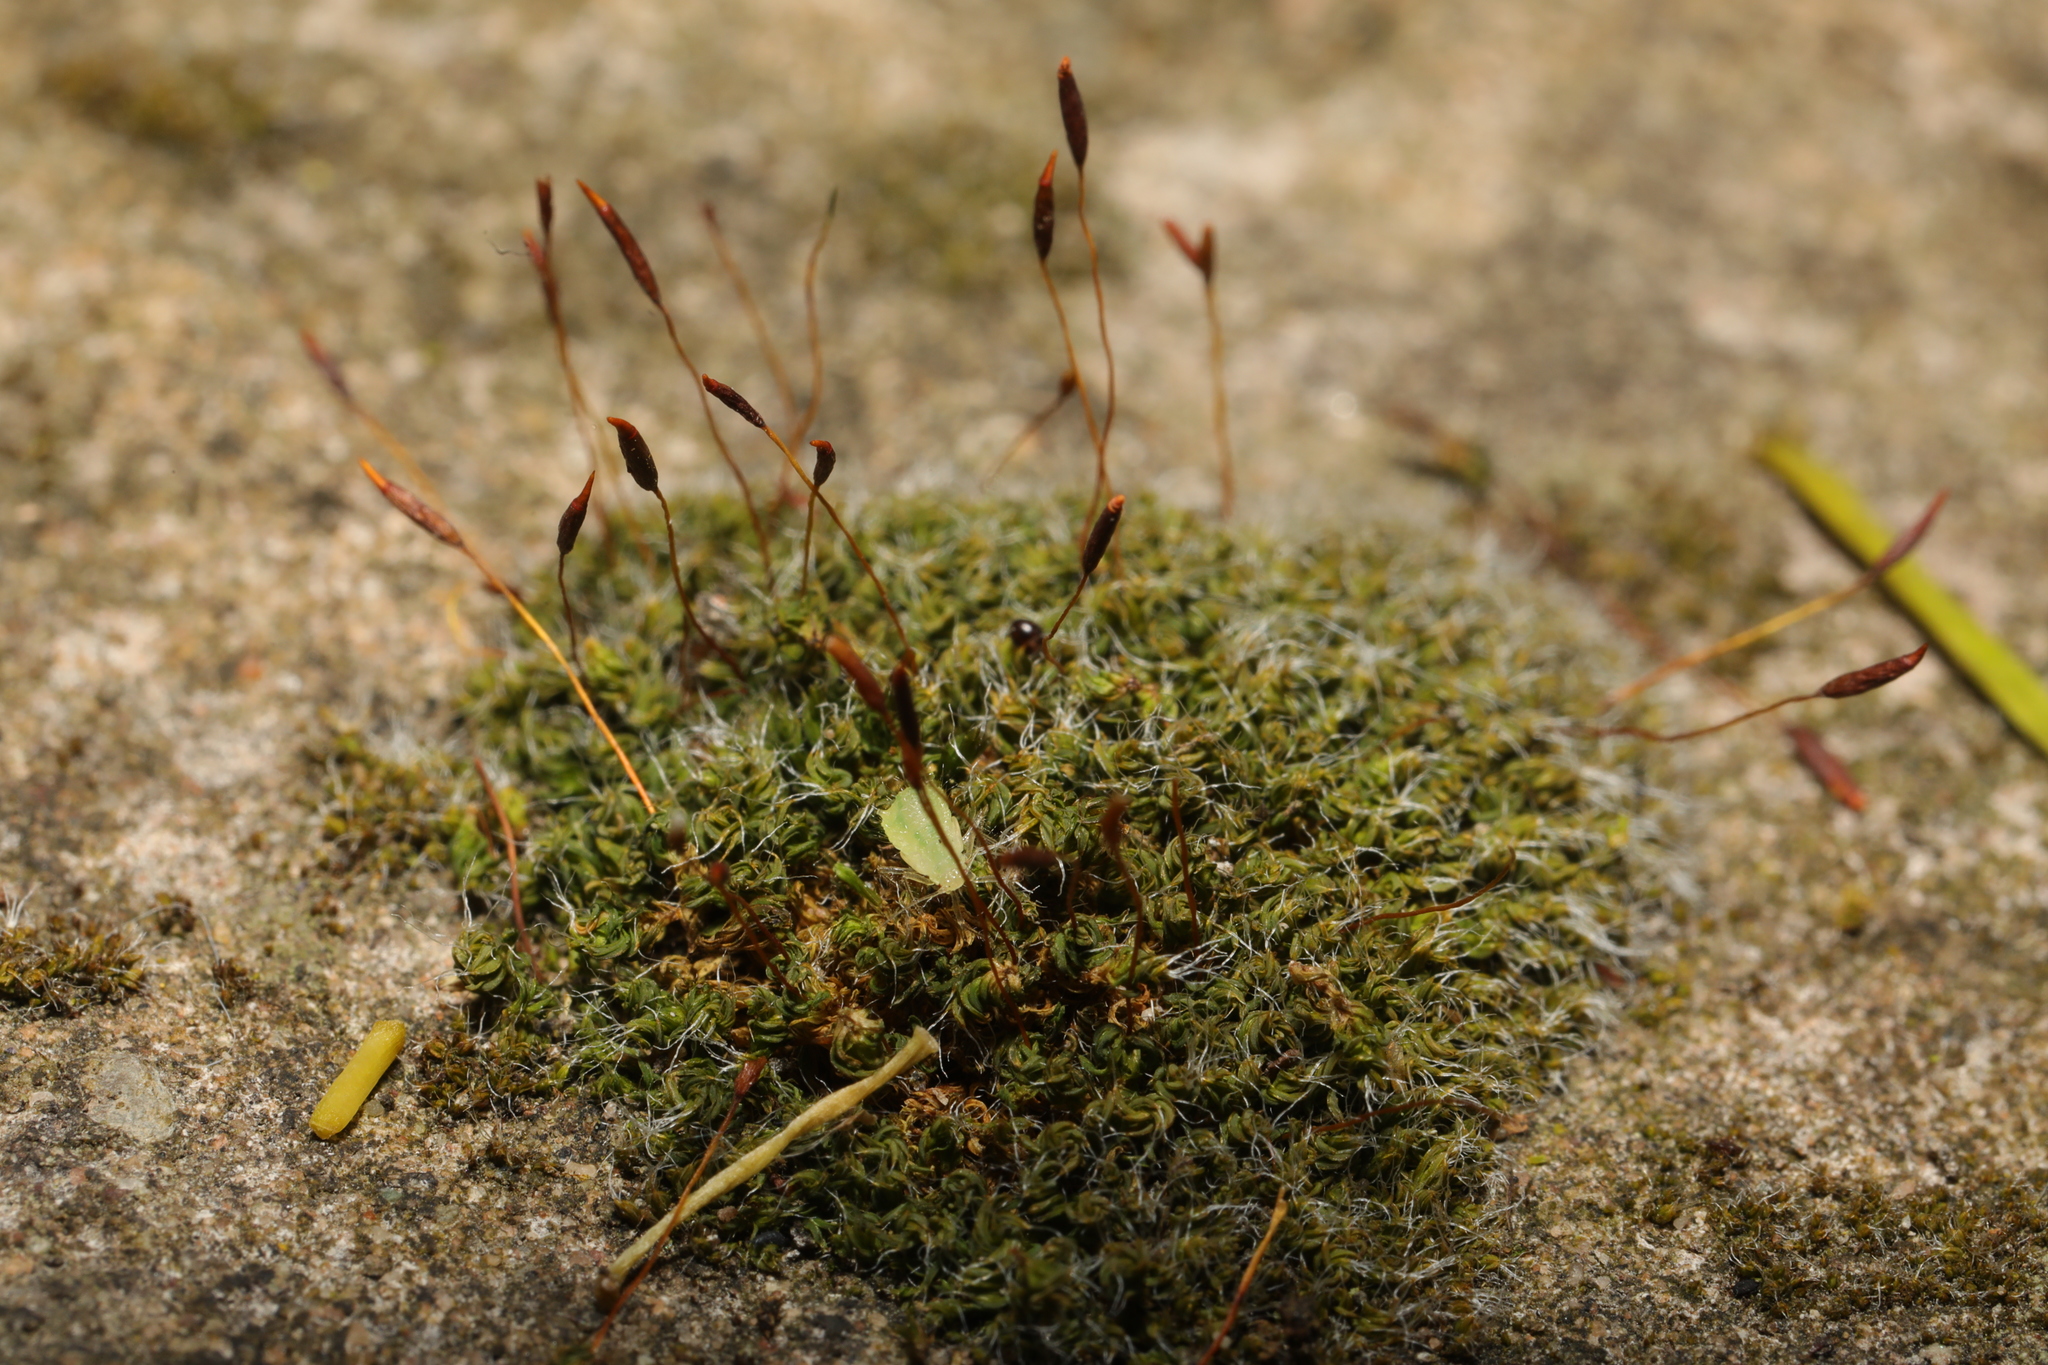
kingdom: Plantae
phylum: Bryophyta
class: Bryopsida
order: Pottiales
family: Pottiaceae
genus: Tortula
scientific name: Tortula muralis
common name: Wall screw-moss
